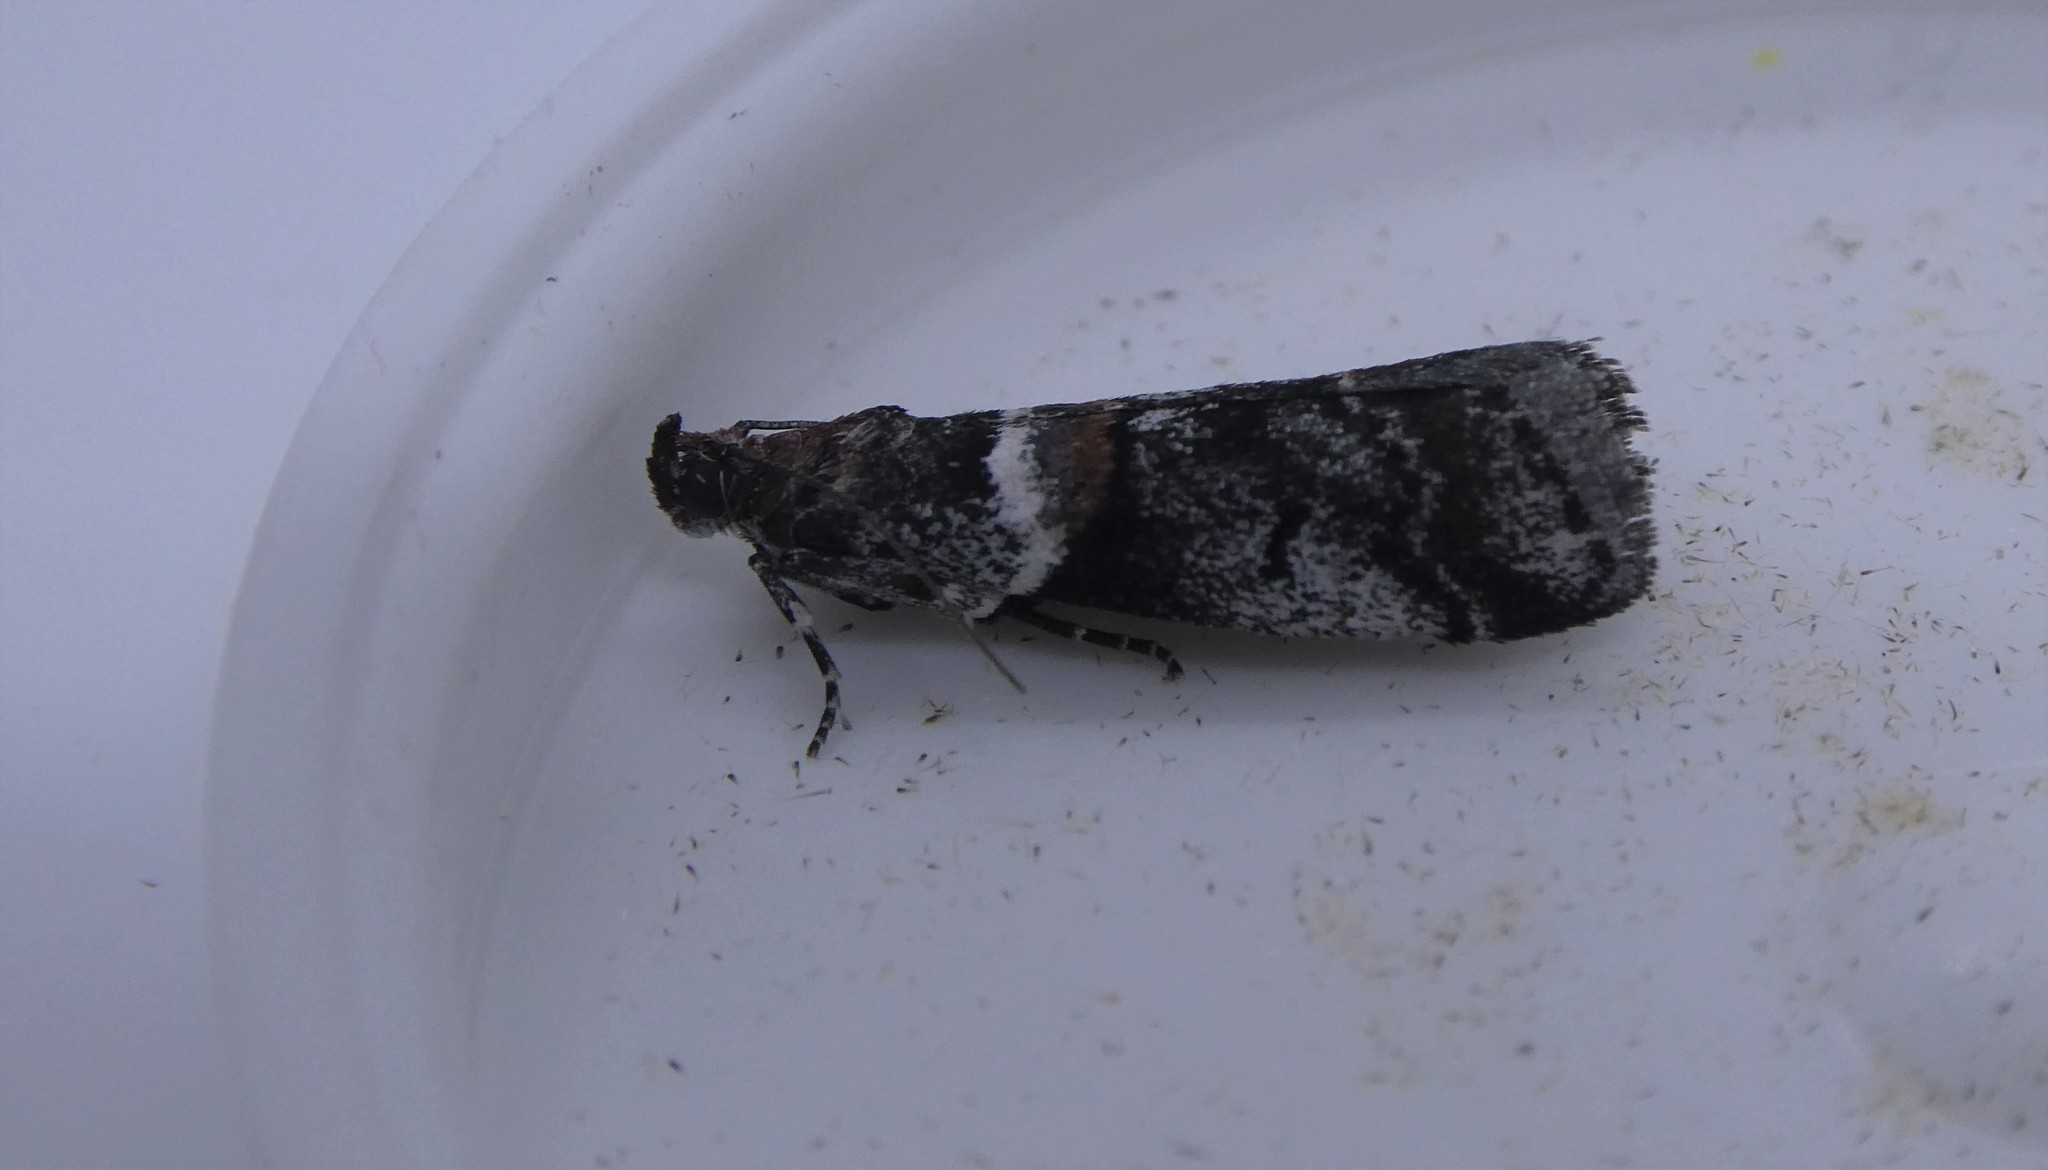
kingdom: Animalia
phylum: Arthropoda
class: Insecta
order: Lepidoptera
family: Pyralidae
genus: Acrobasis
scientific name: Acrobasis tricolorella
